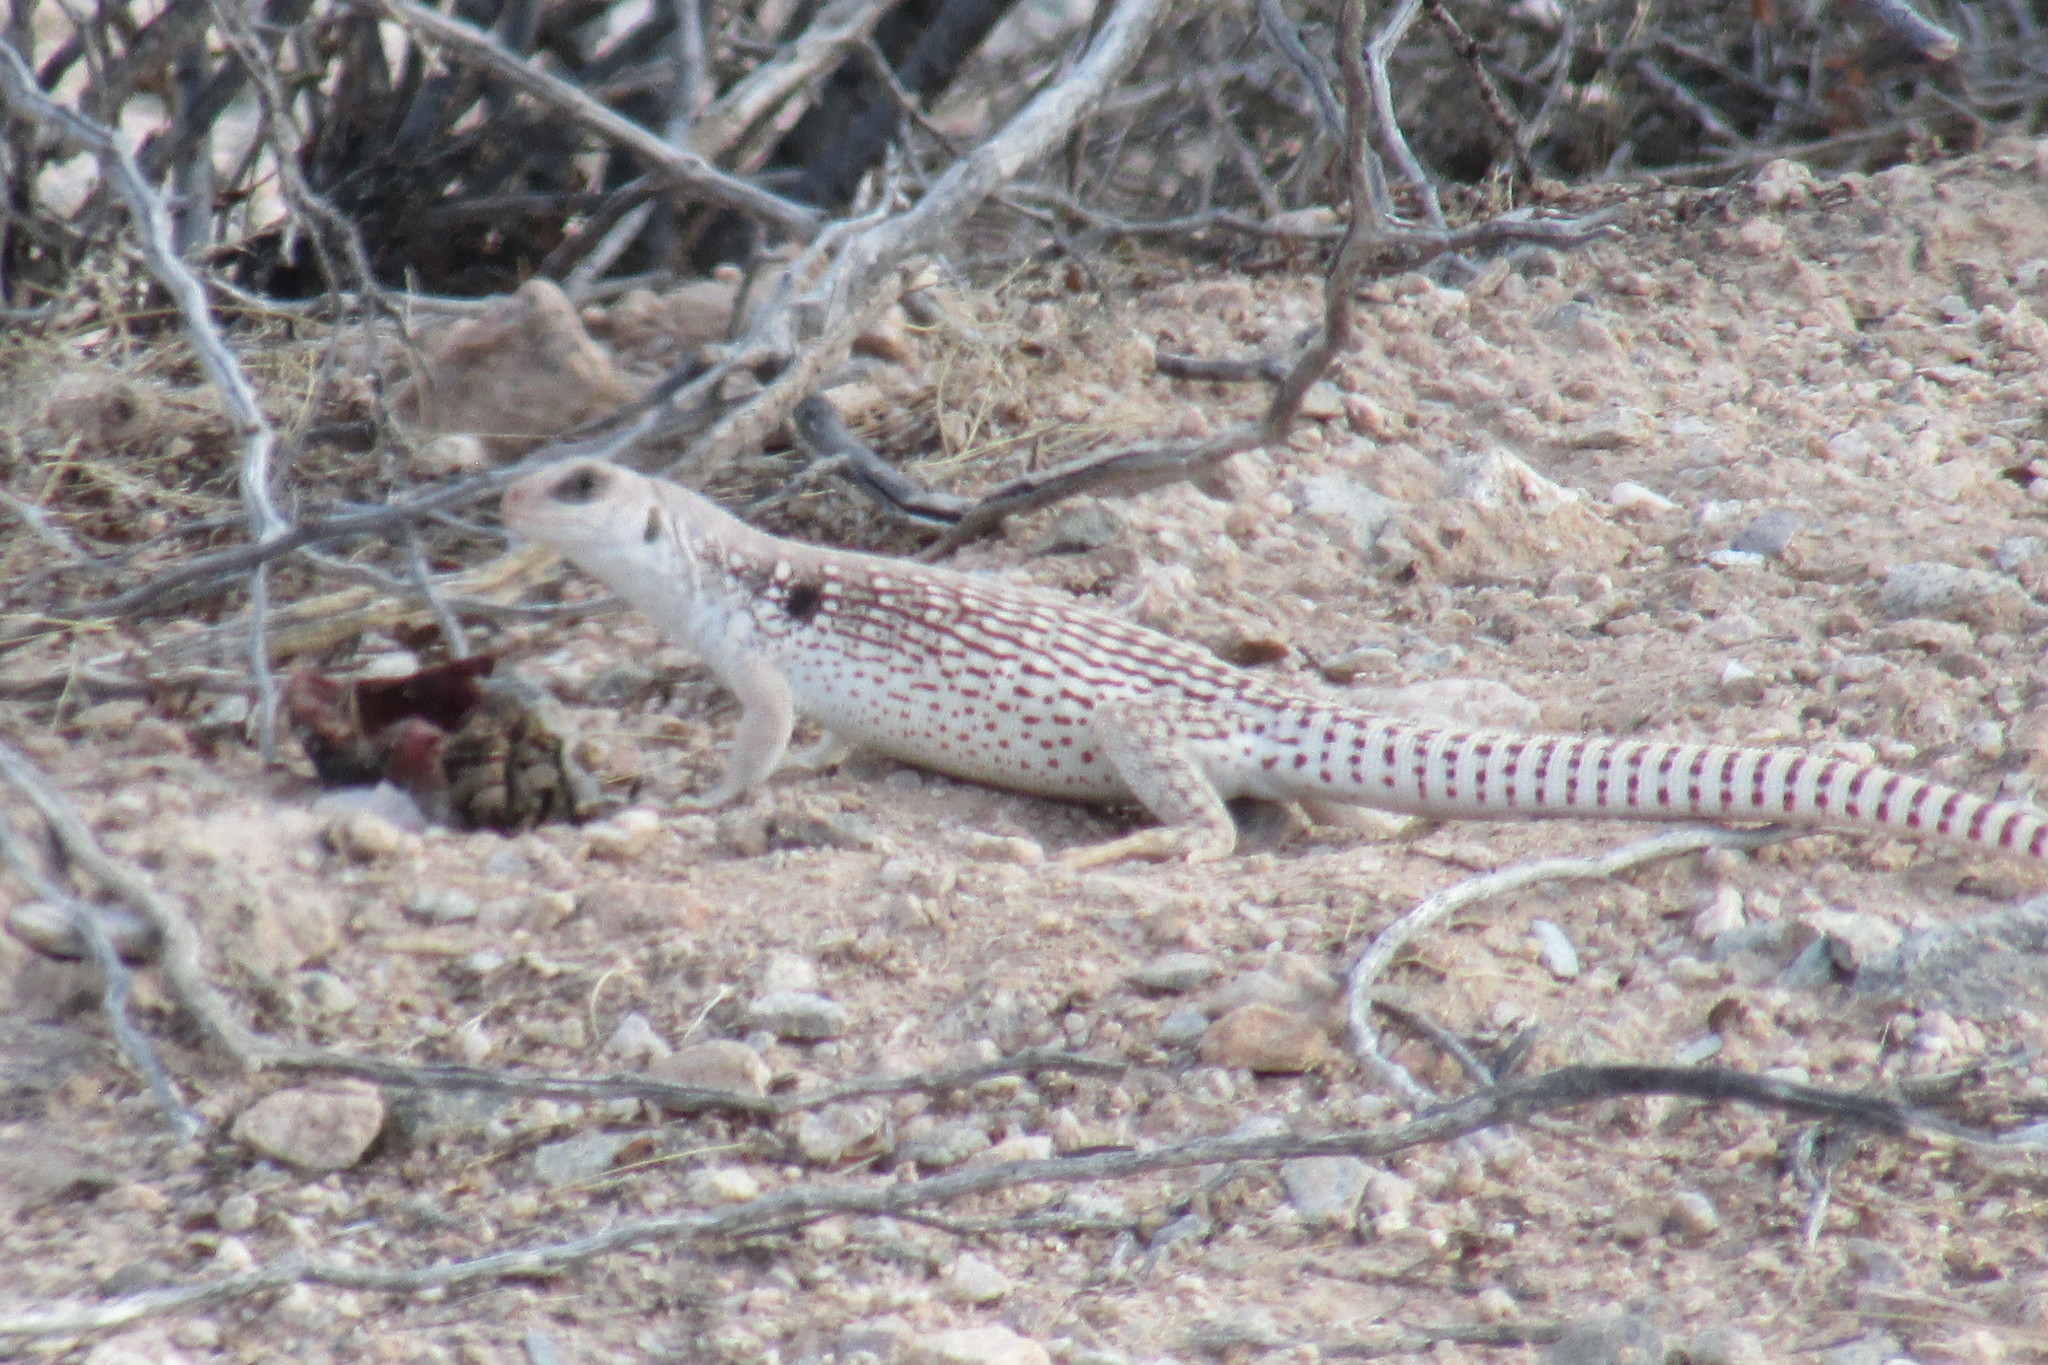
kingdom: Animalia
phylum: Chordata
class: Squamata
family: Iguanidae
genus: Dipsosaurus
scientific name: Dipsosaurus dorsalis
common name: Desert iguana
